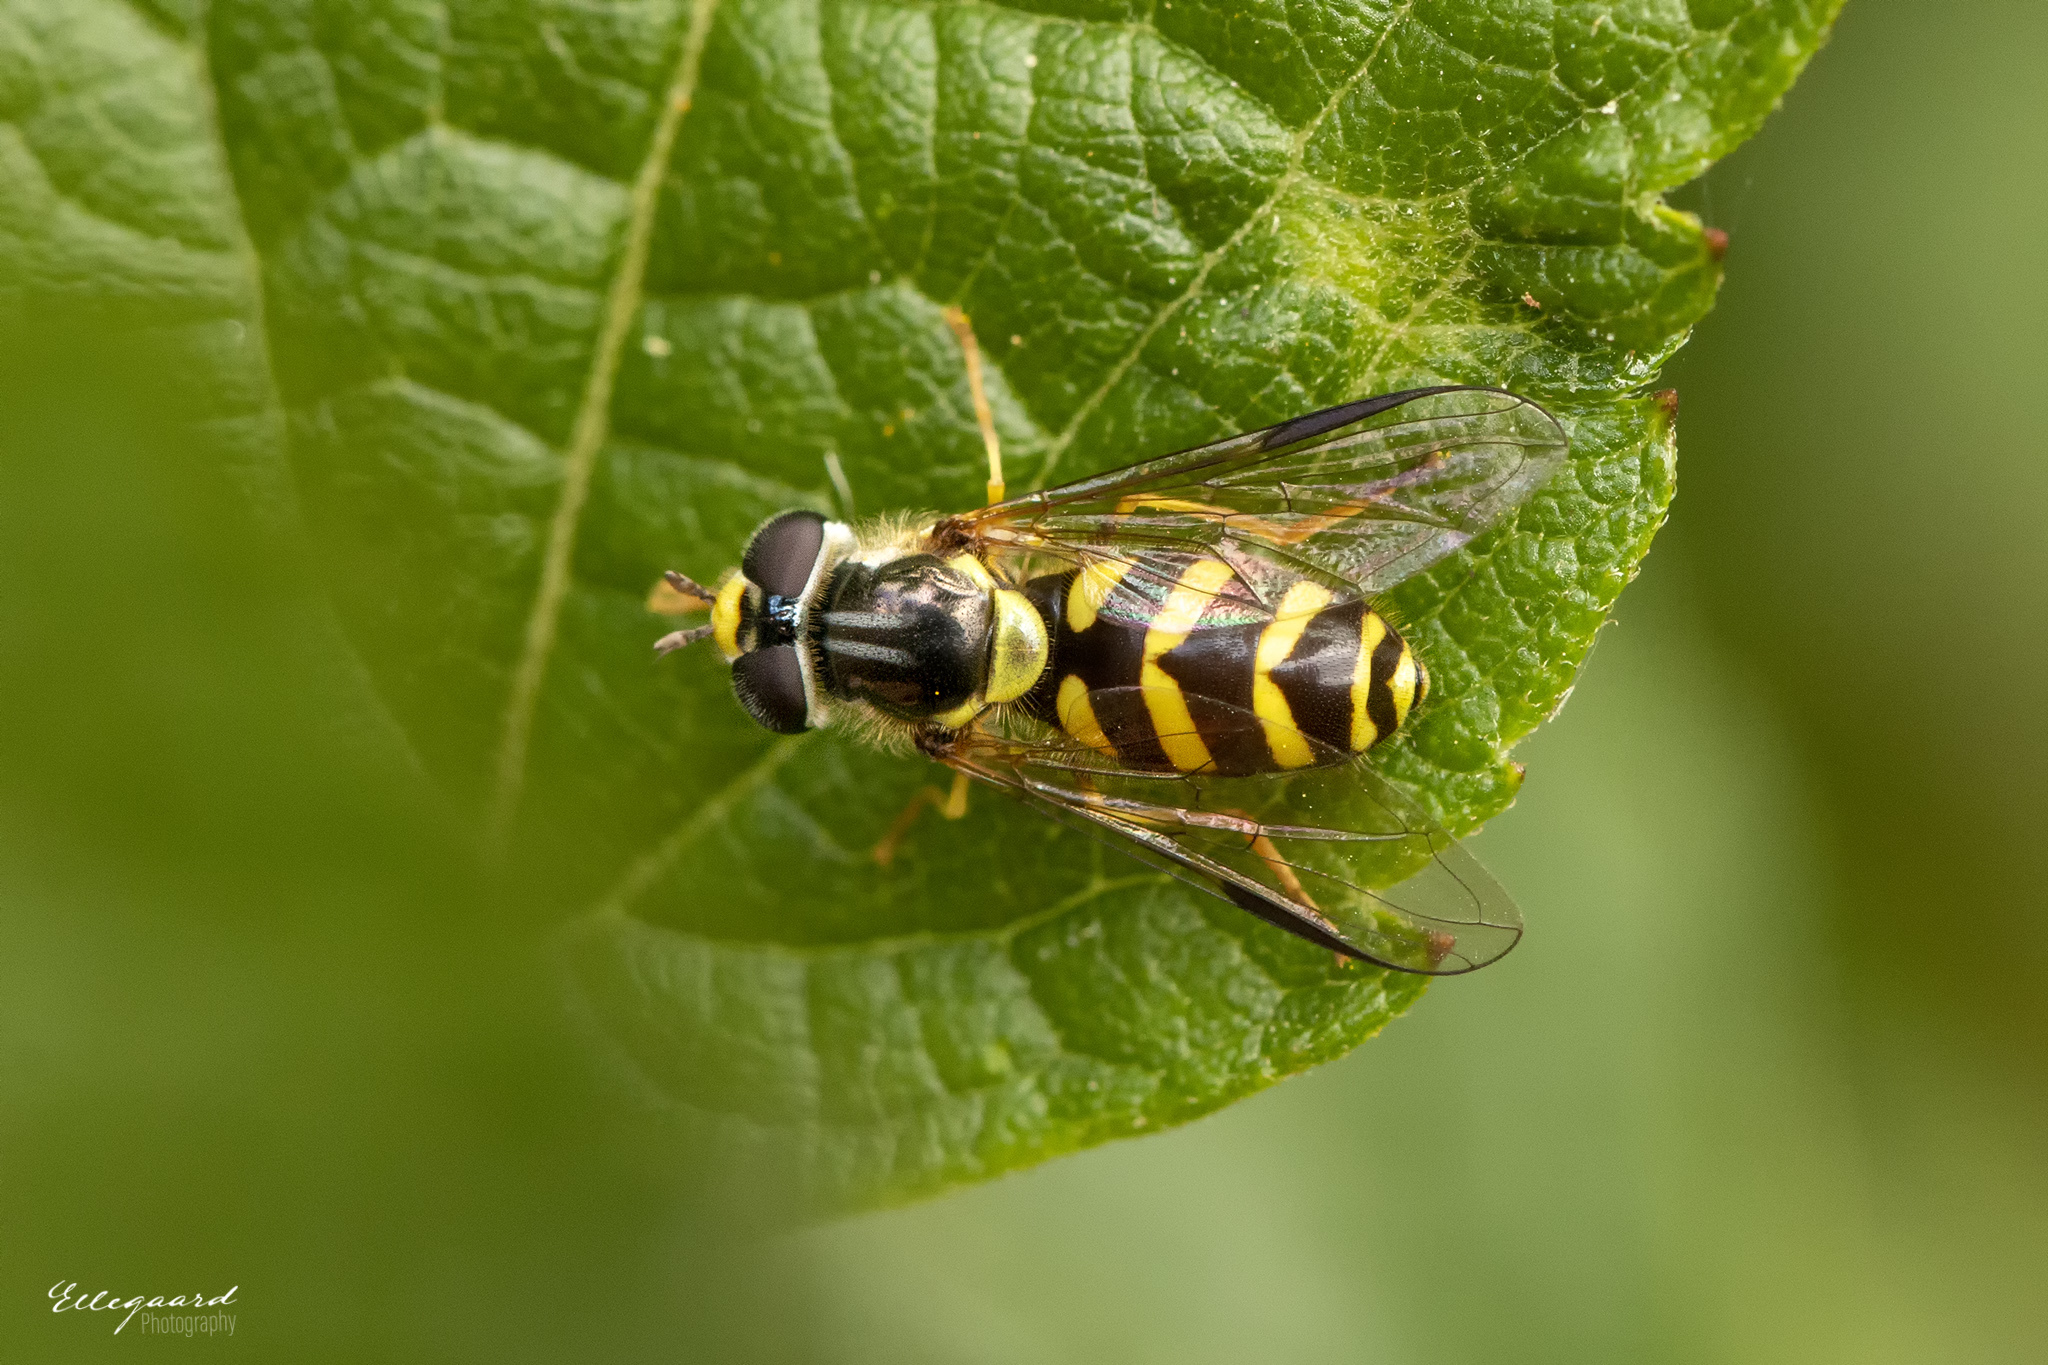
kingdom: Animalia
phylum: Arthropoda
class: Insecta
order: Diptera
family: Syrphidae
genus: Dasysyrphus
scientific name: Dasysyrphus albostriatus
